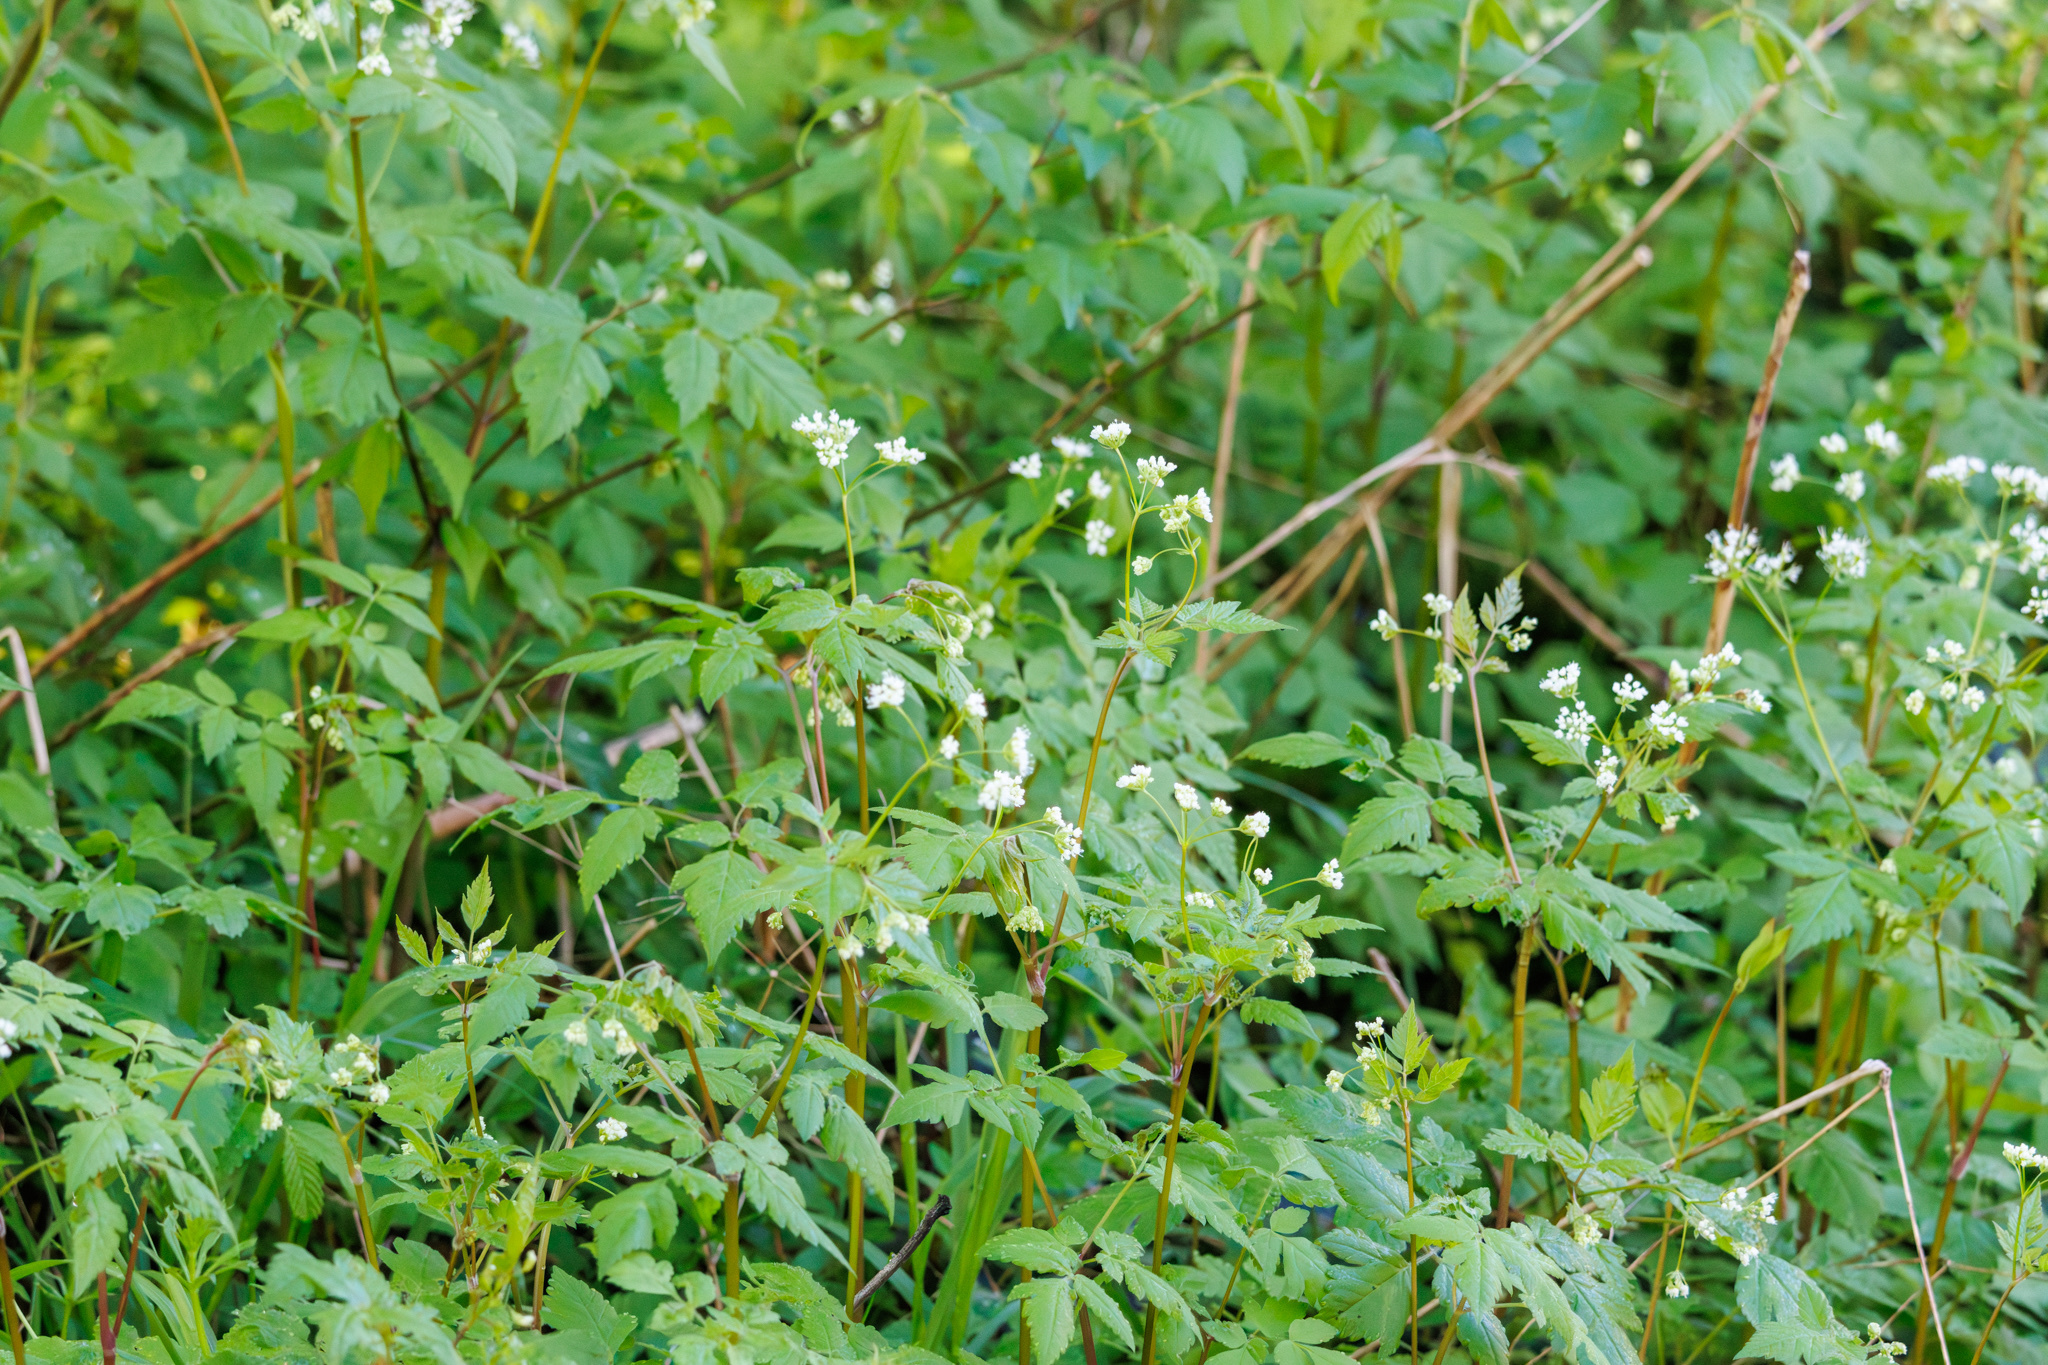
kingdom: Plantae
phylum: Tracheophyta
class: Magnoliopsida
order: Apiales
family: Apiaceae
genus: Osmorhiza
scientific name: Osmorhiza longistylis
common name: Smooth sweet cicely
